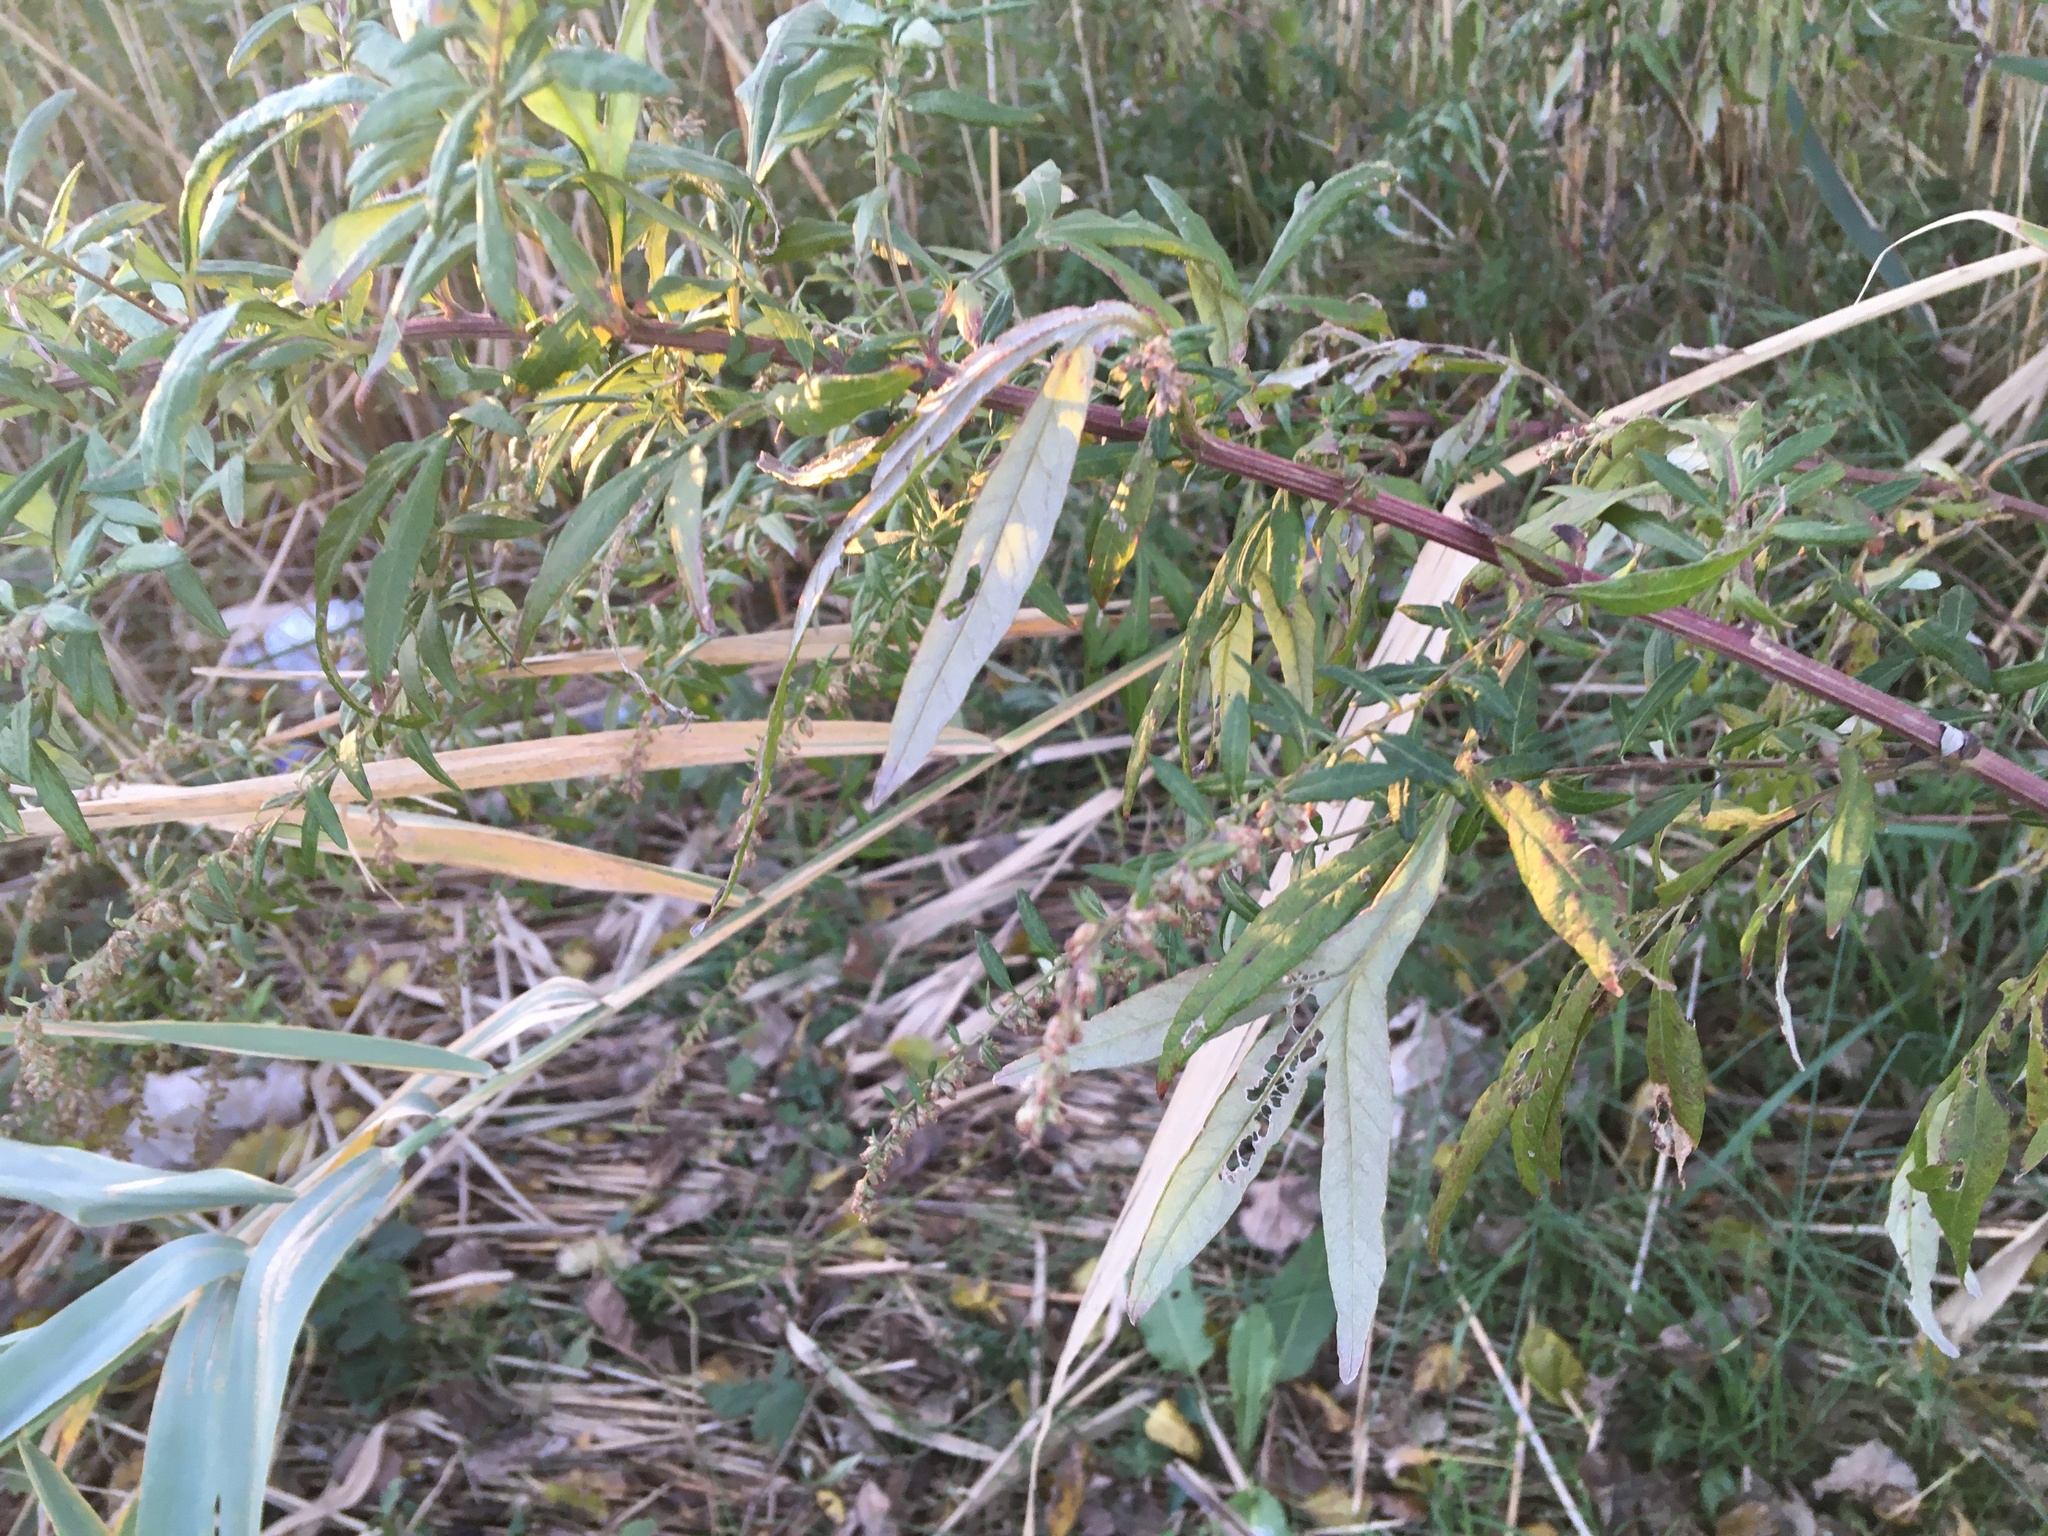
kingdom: Plantae
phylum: Tracheophyta
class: Magnoliopsida
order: Asterales
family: Asteraceae
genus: Artemisia
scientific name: Artemisia vulgaris
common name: Mugwort
